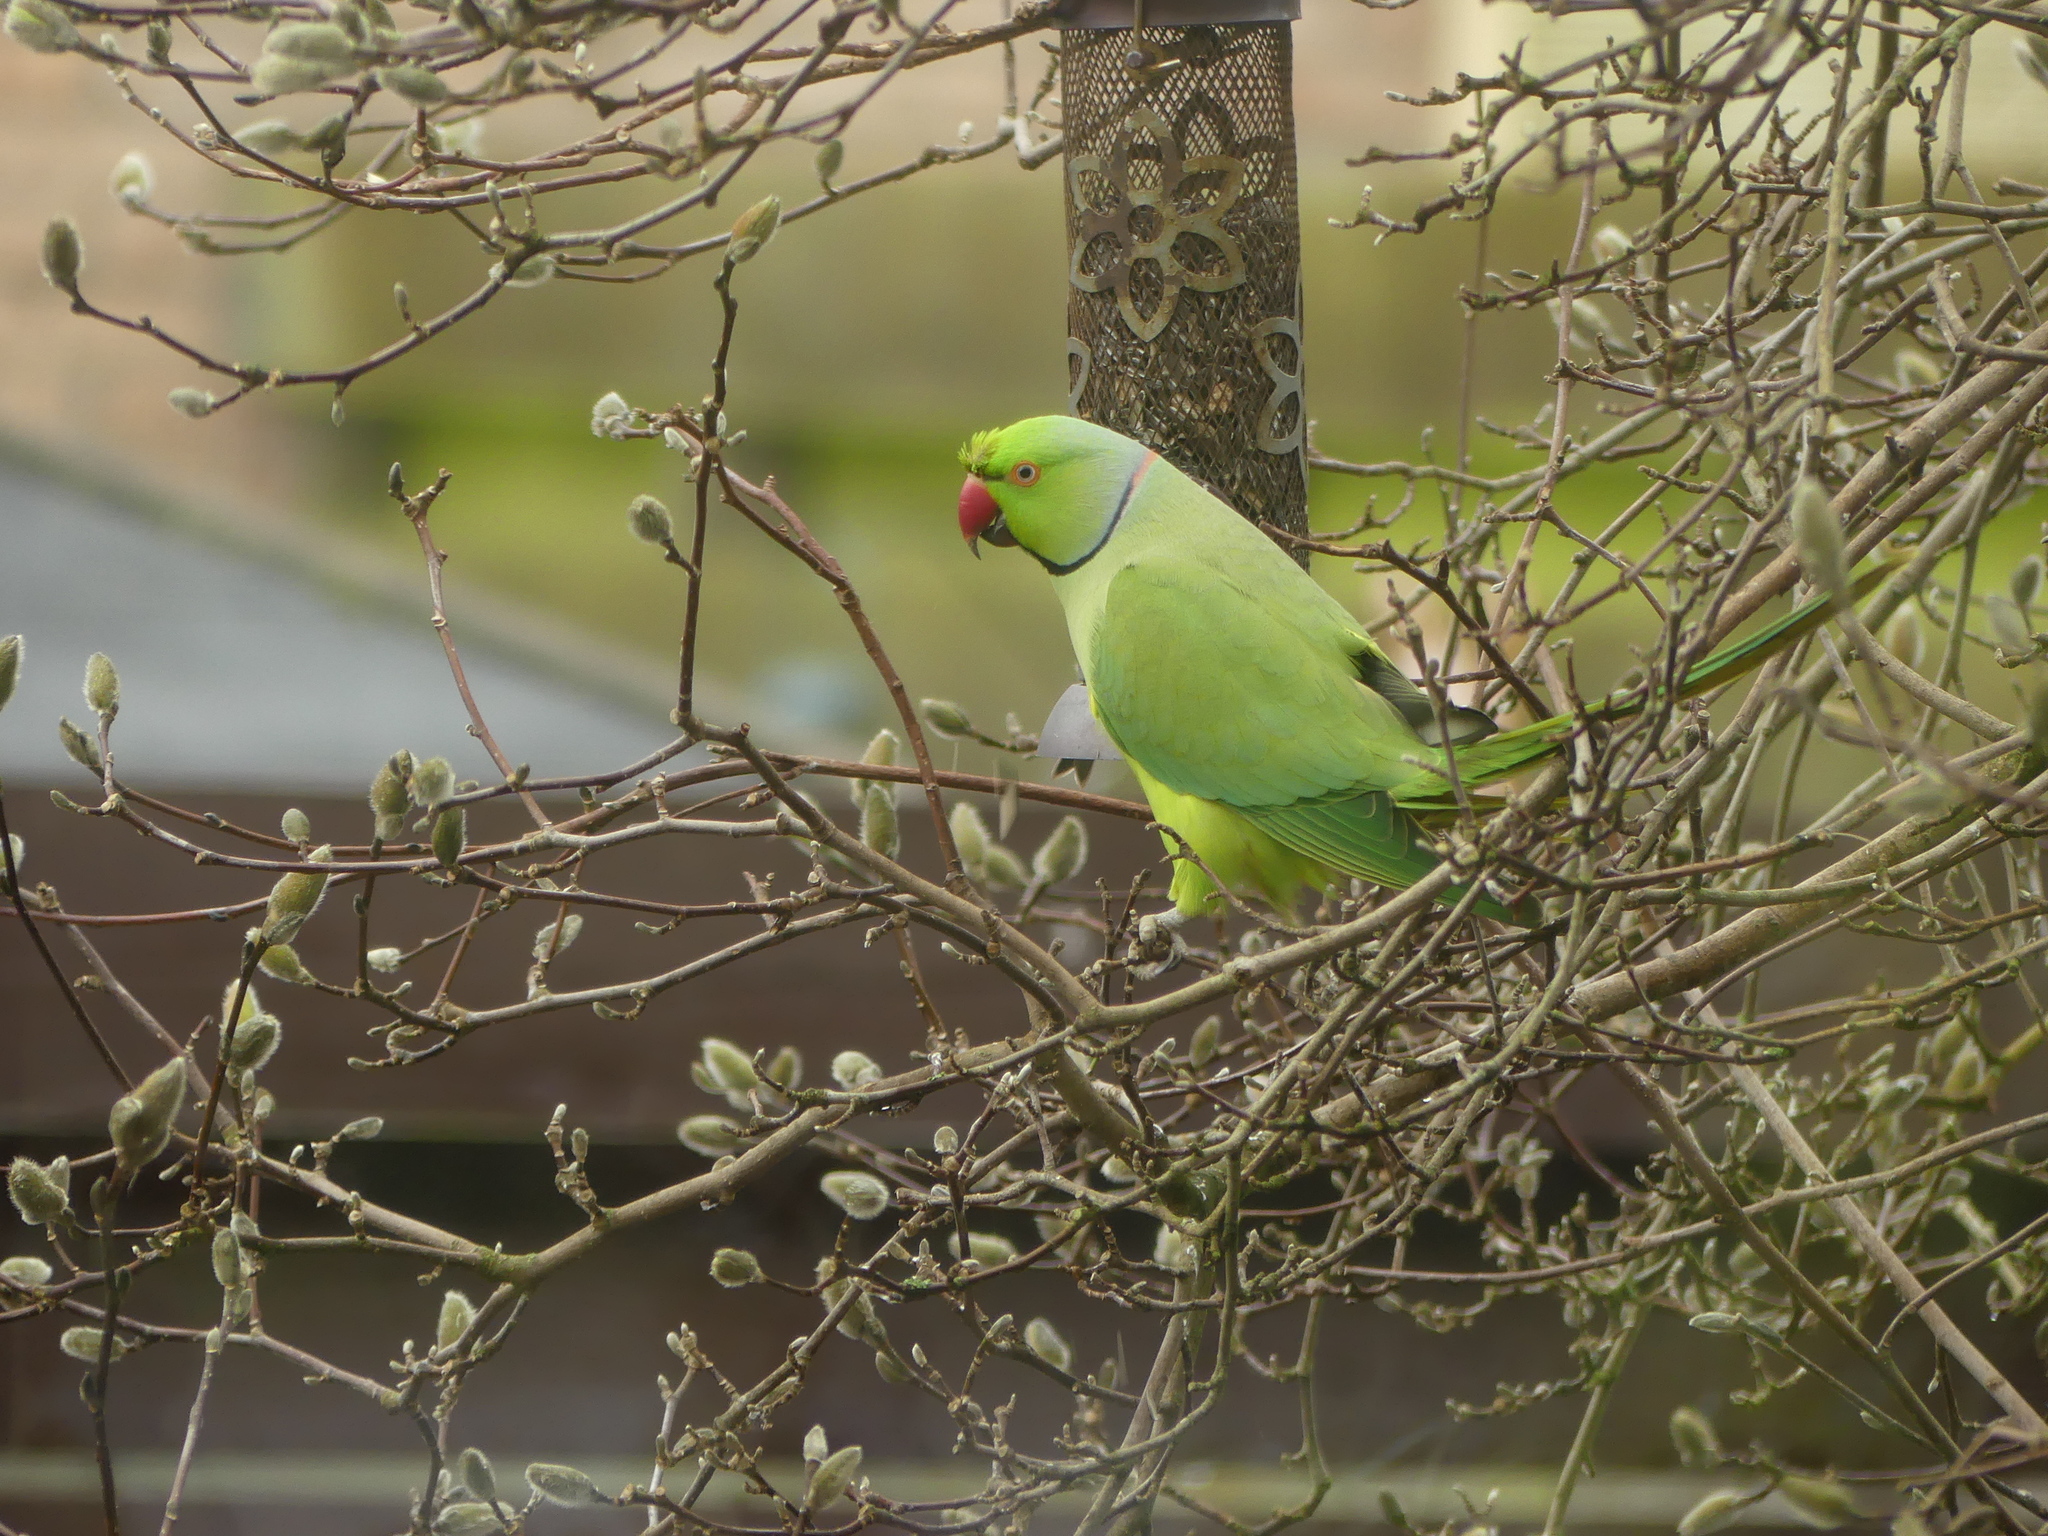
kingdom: Animalia
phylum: Chordata
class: Aves
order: Psittaciformes
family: Psittacidae
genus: Psittacula
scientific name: Psittacula krameri
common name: Rose-ringed parakeet
